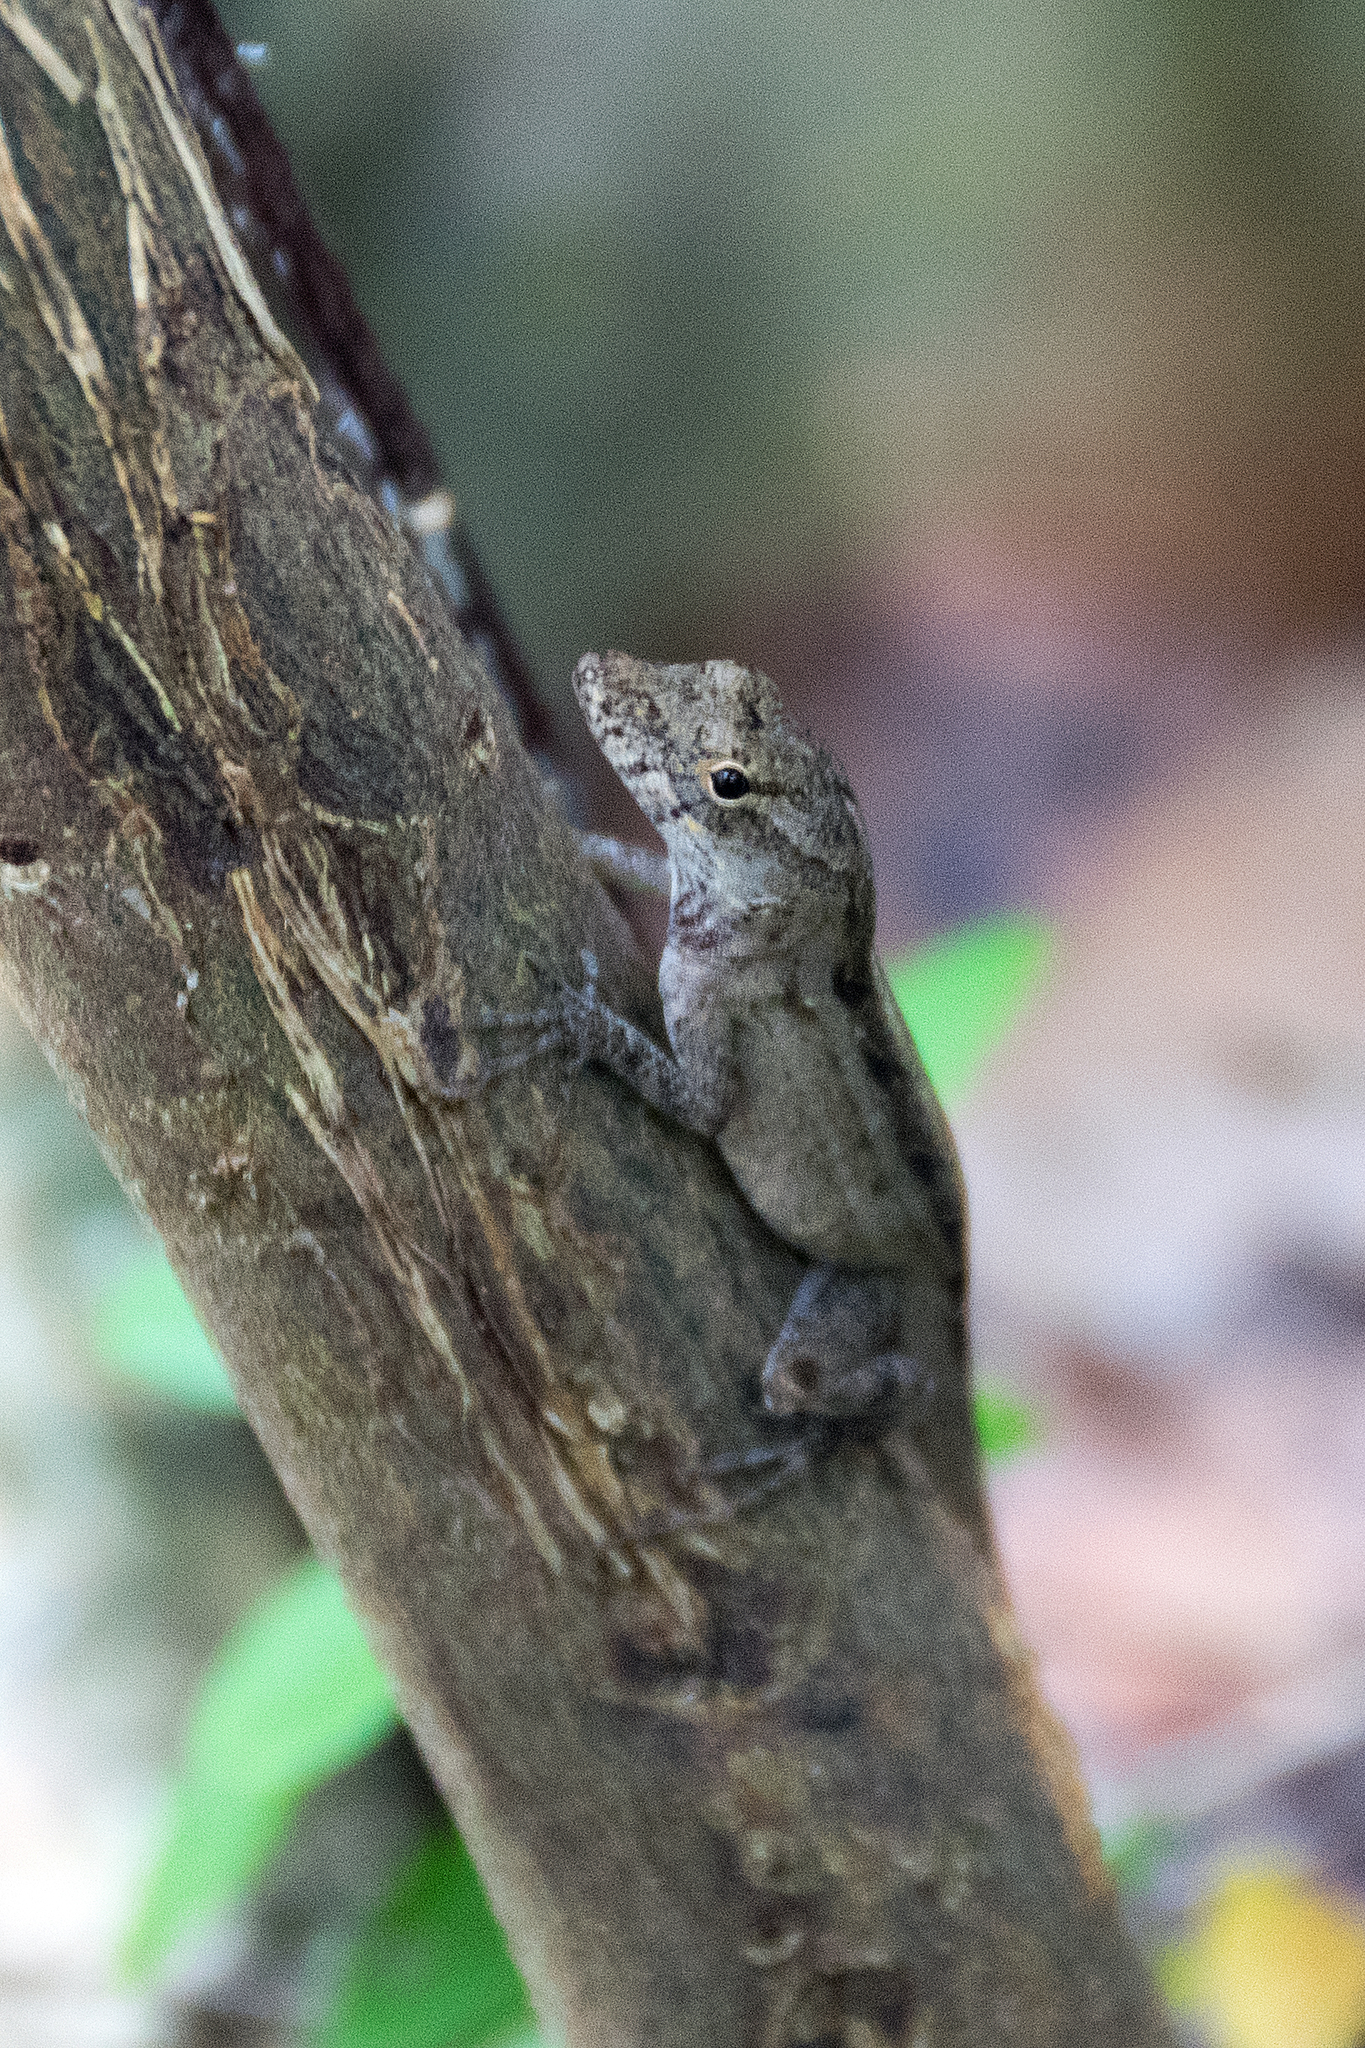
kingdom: Animalia
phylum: Chordata
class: Squamata
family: Dactyloidae
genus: Anolis
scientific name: Anolis sagrei
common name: Brown anole
